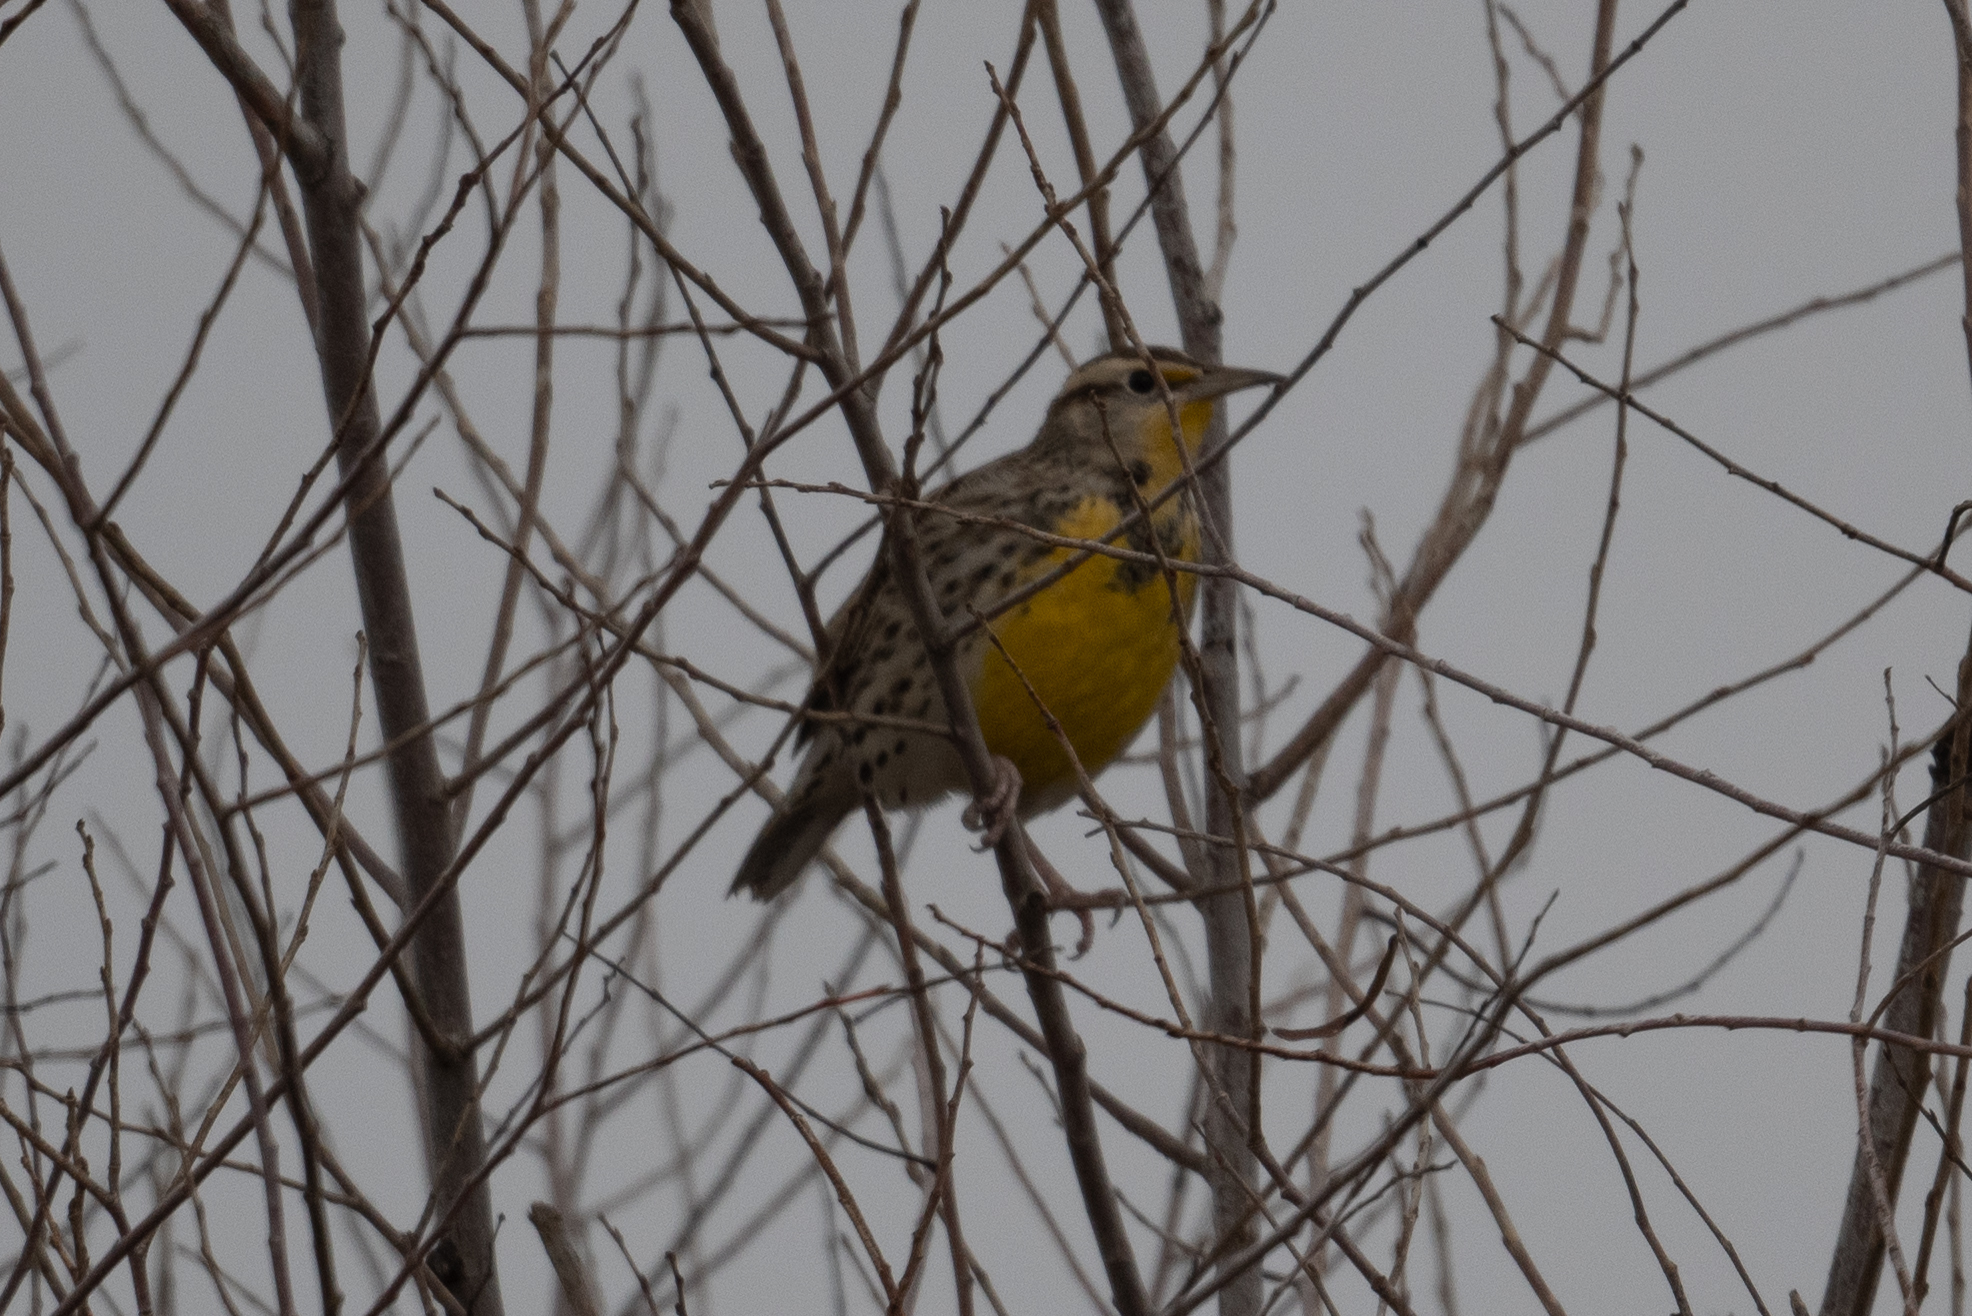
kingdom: Animalia
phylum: Chordata
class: Aves
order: Passeriformes
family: Icteridae
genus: Sturnella
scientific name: Sturnella neglecta
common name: Western meadowlark
